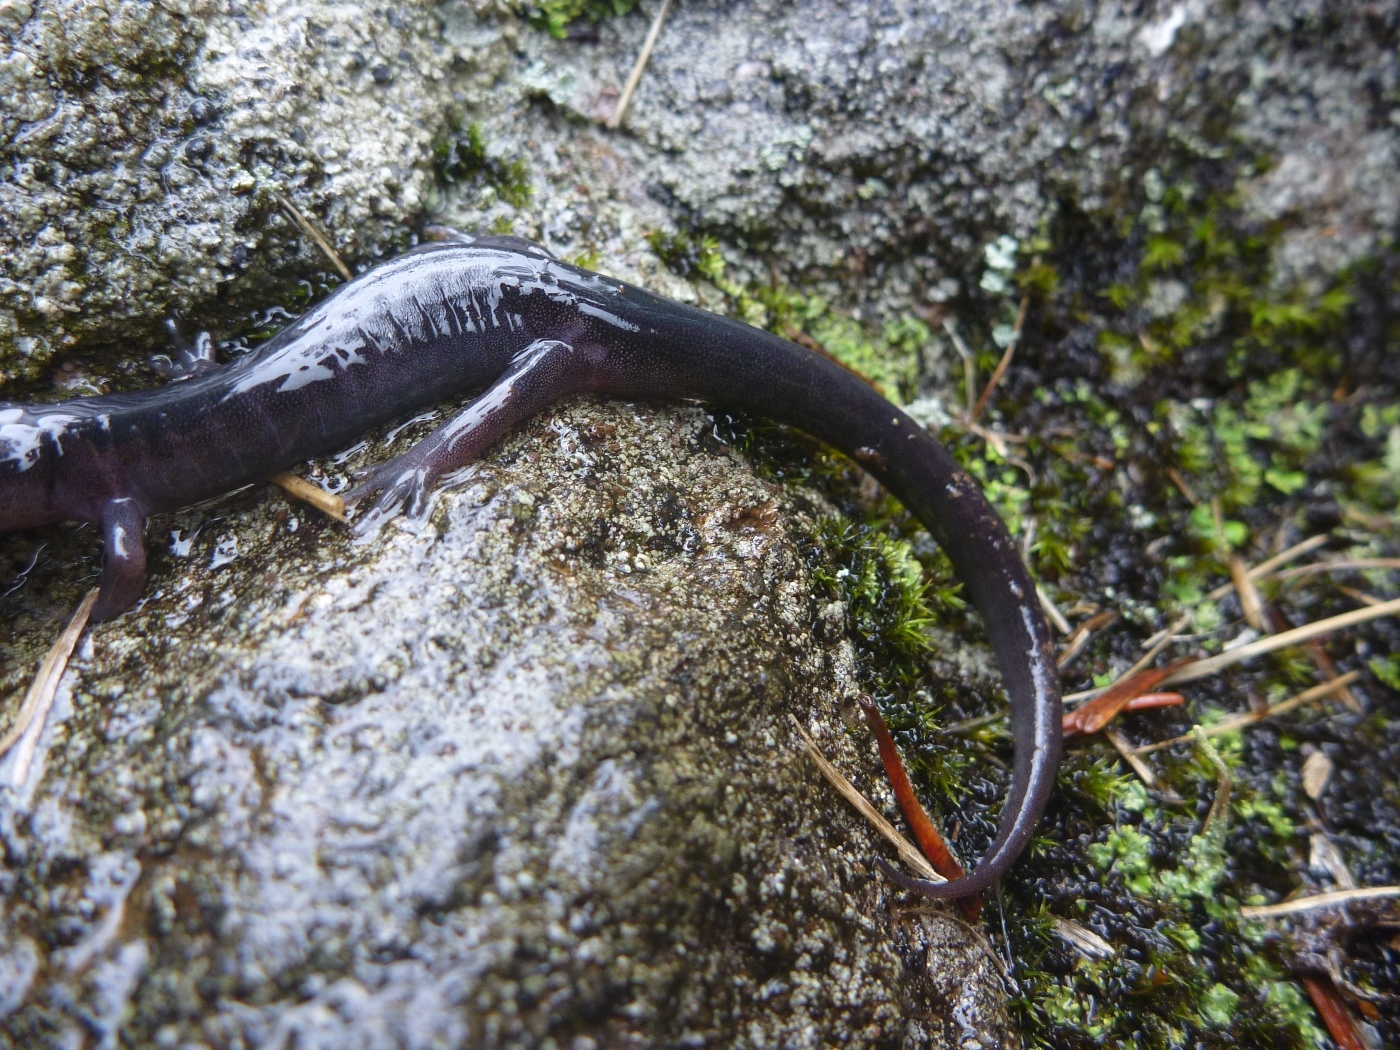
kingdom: Animalia
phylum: Chordata
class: Amphibia
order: Caudata
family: Plethodontidae
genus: Plethodon
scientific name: Plethodon montanus
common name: Northern gray-cheeked salamander
